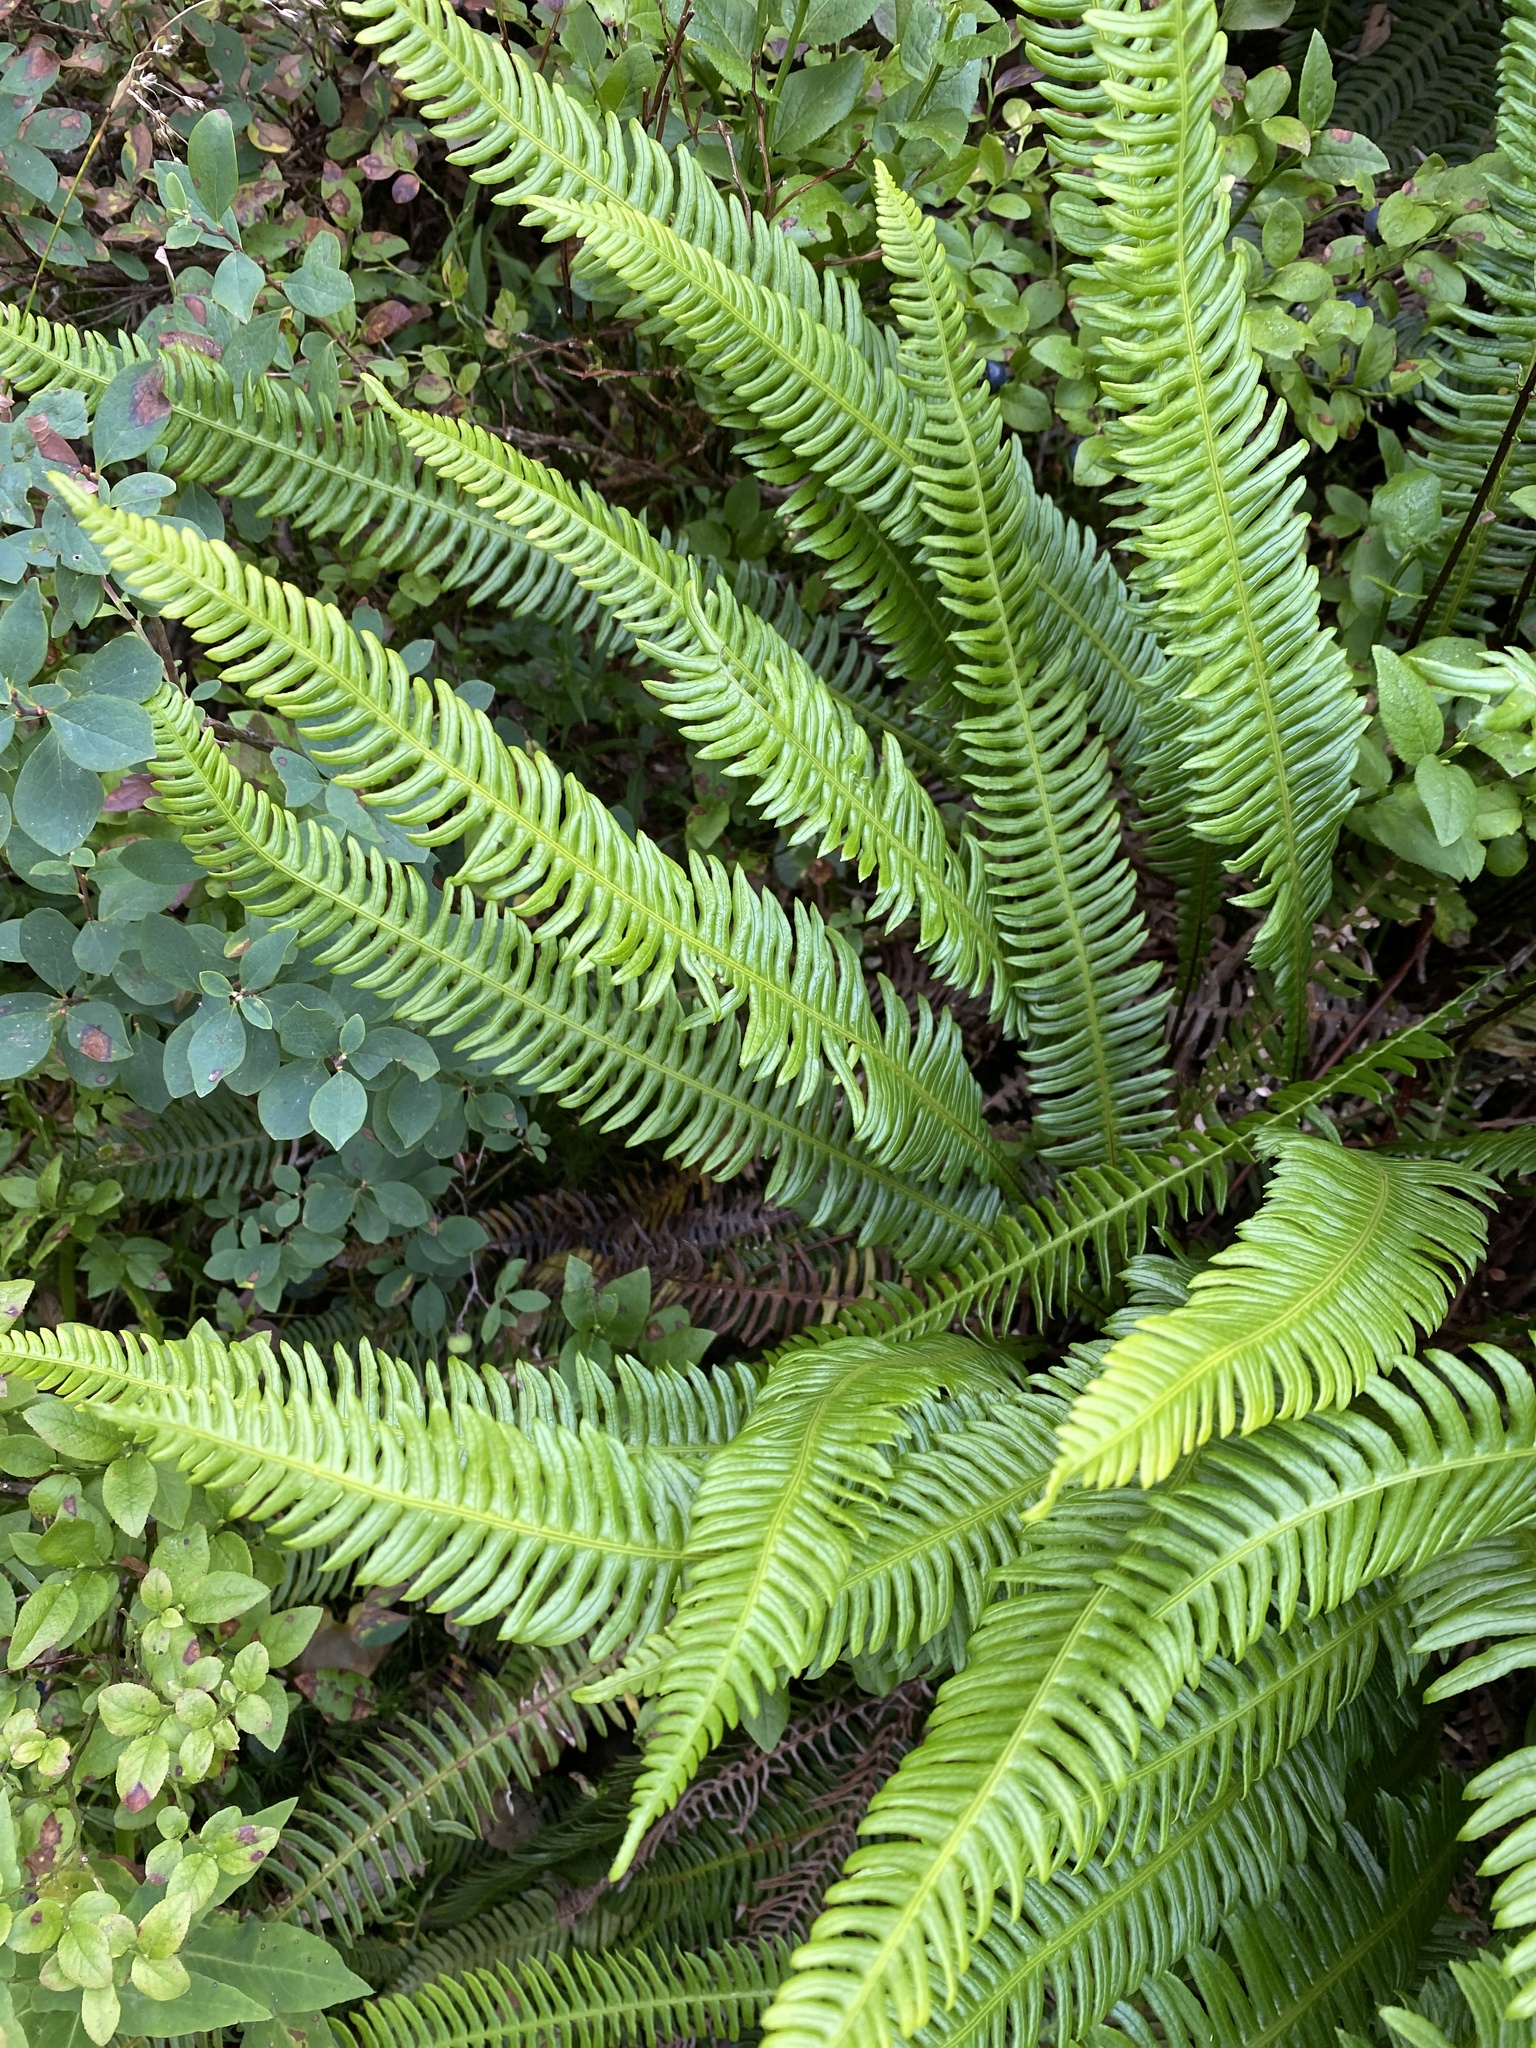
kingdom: Plantae
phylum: Tracheophyta
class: Polypodiopsida
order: Polypodiales
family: Blechnaceae
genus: Struthiopteris
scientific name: Struthiopteris spicant
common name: Deer fern
